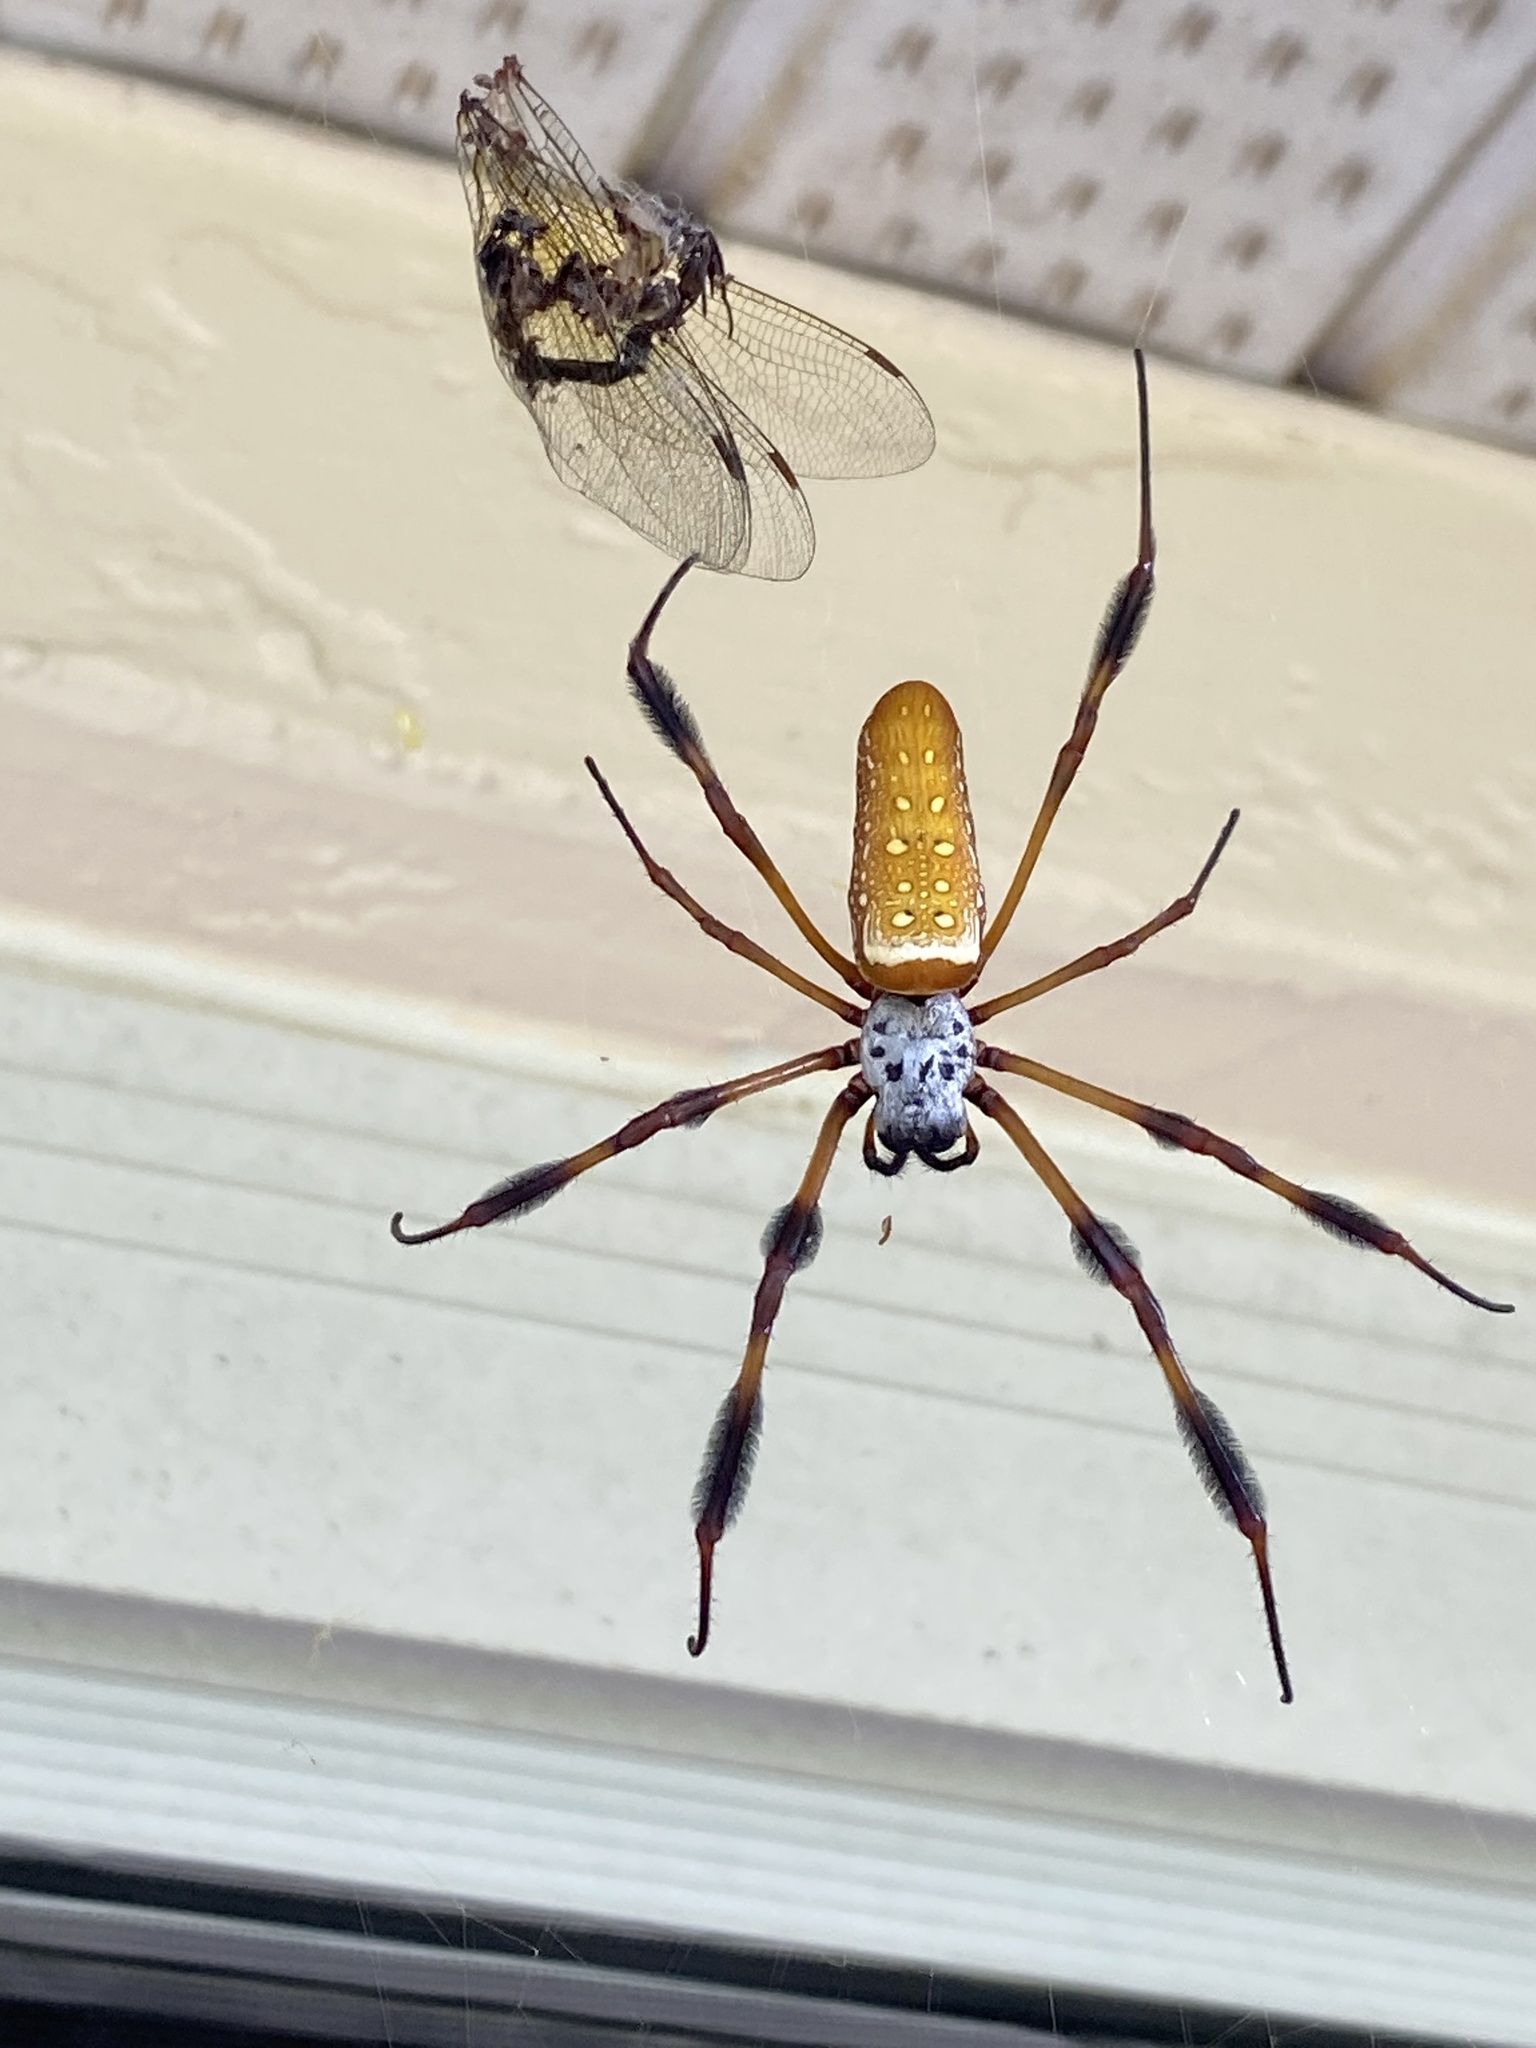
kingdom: Animalia
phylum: Arthropoda
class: Arachnida
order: Araneae
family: Araneidae
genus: Trichonephila
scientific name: Trichonephila clavipes
